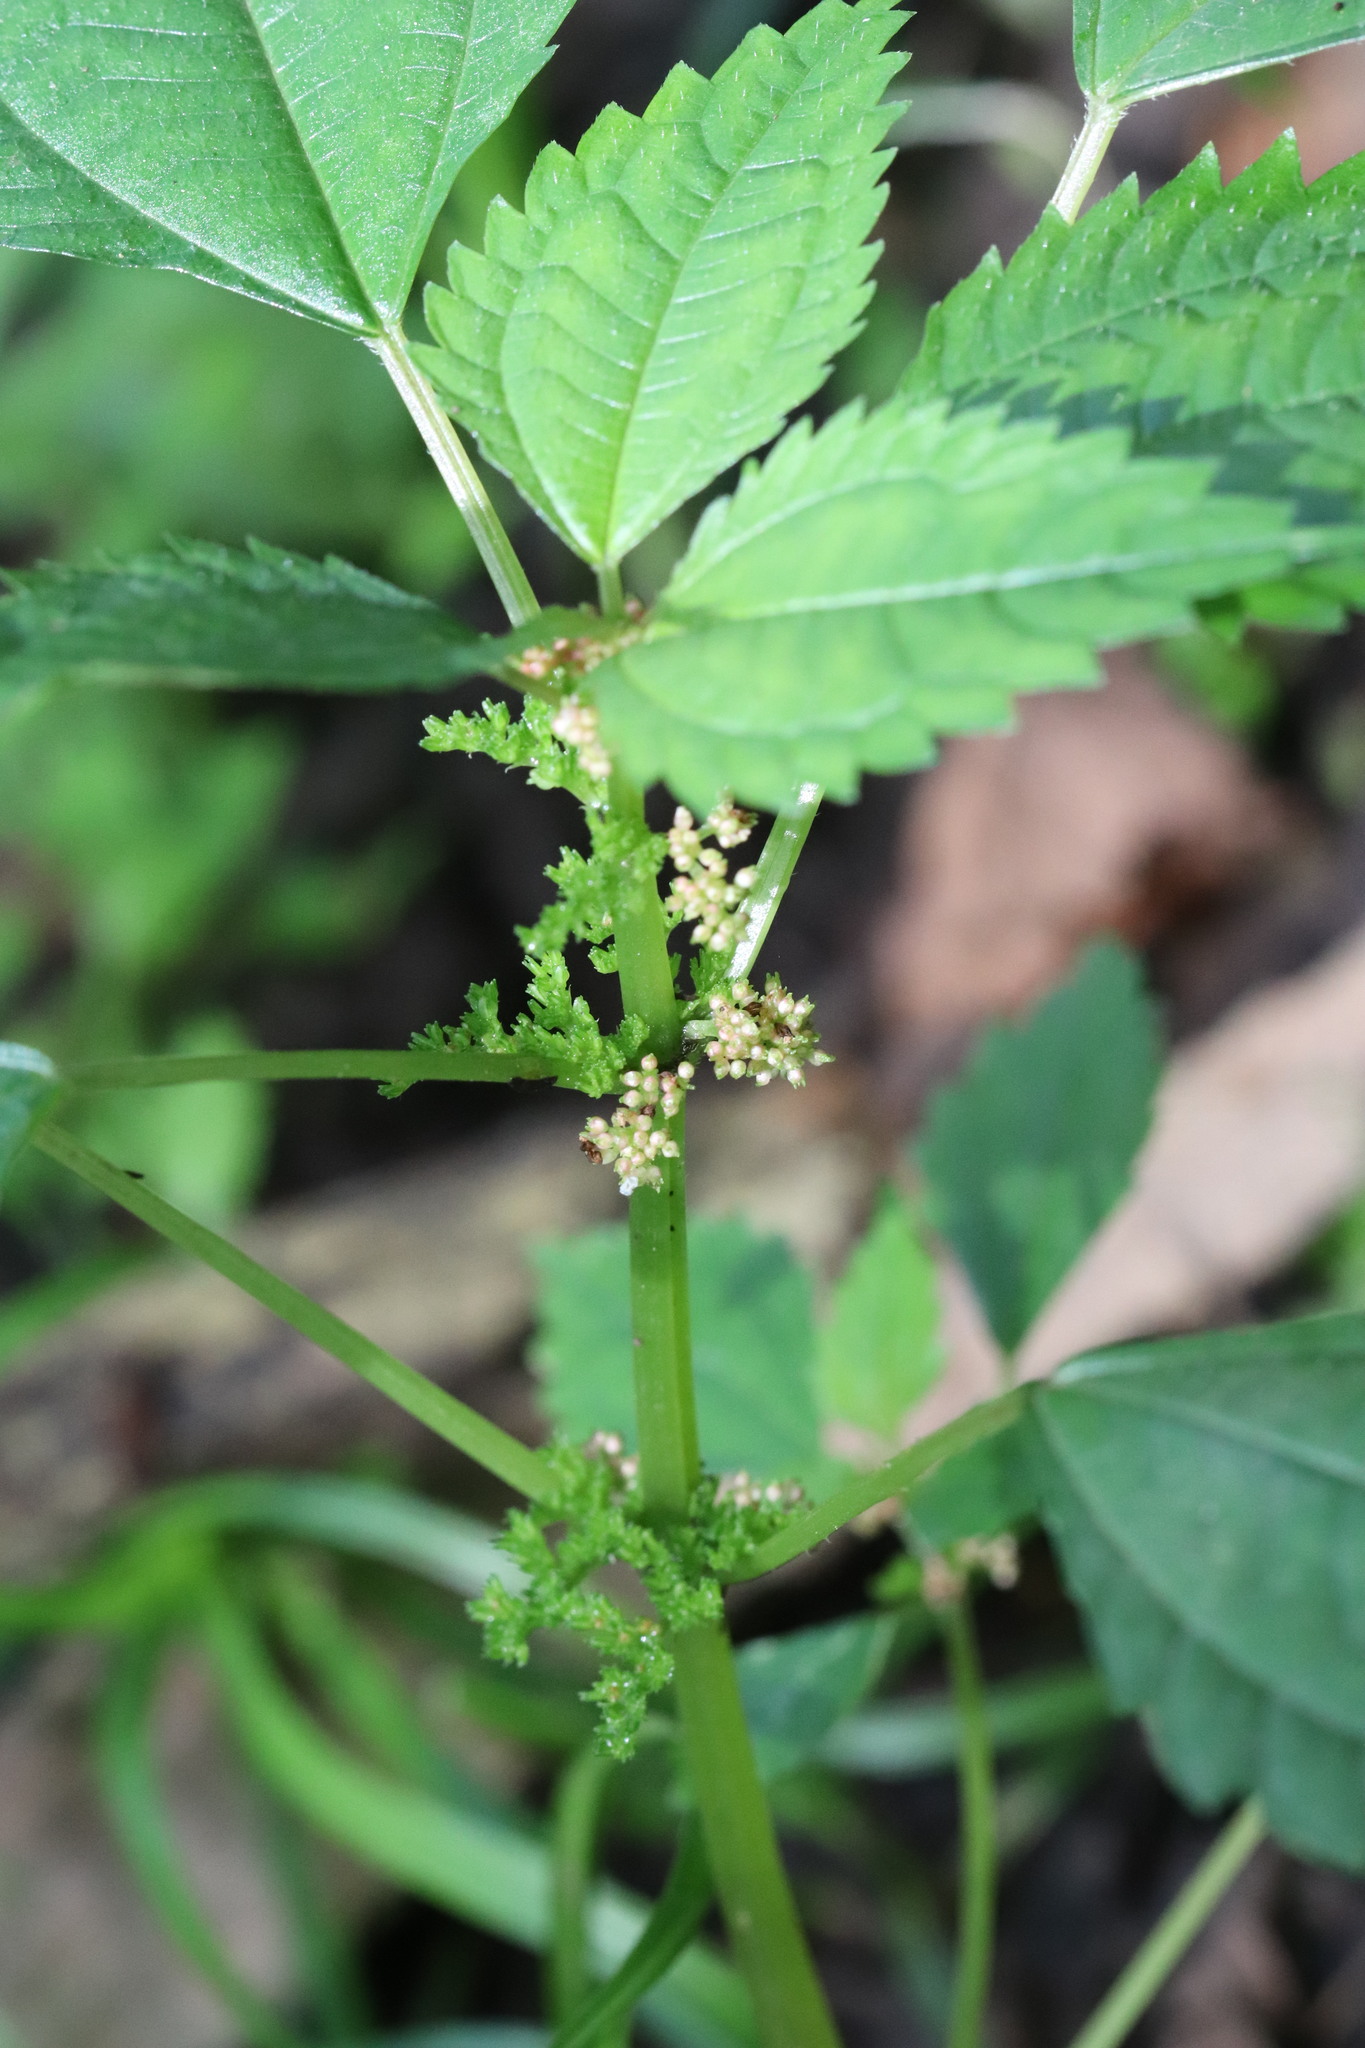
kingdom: Plantae
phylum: Tracheophyta
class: Magnoliopsida
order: Rosales
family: Urticaceae
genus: Pilea
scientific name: Pilea pumila
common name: Clearweed
